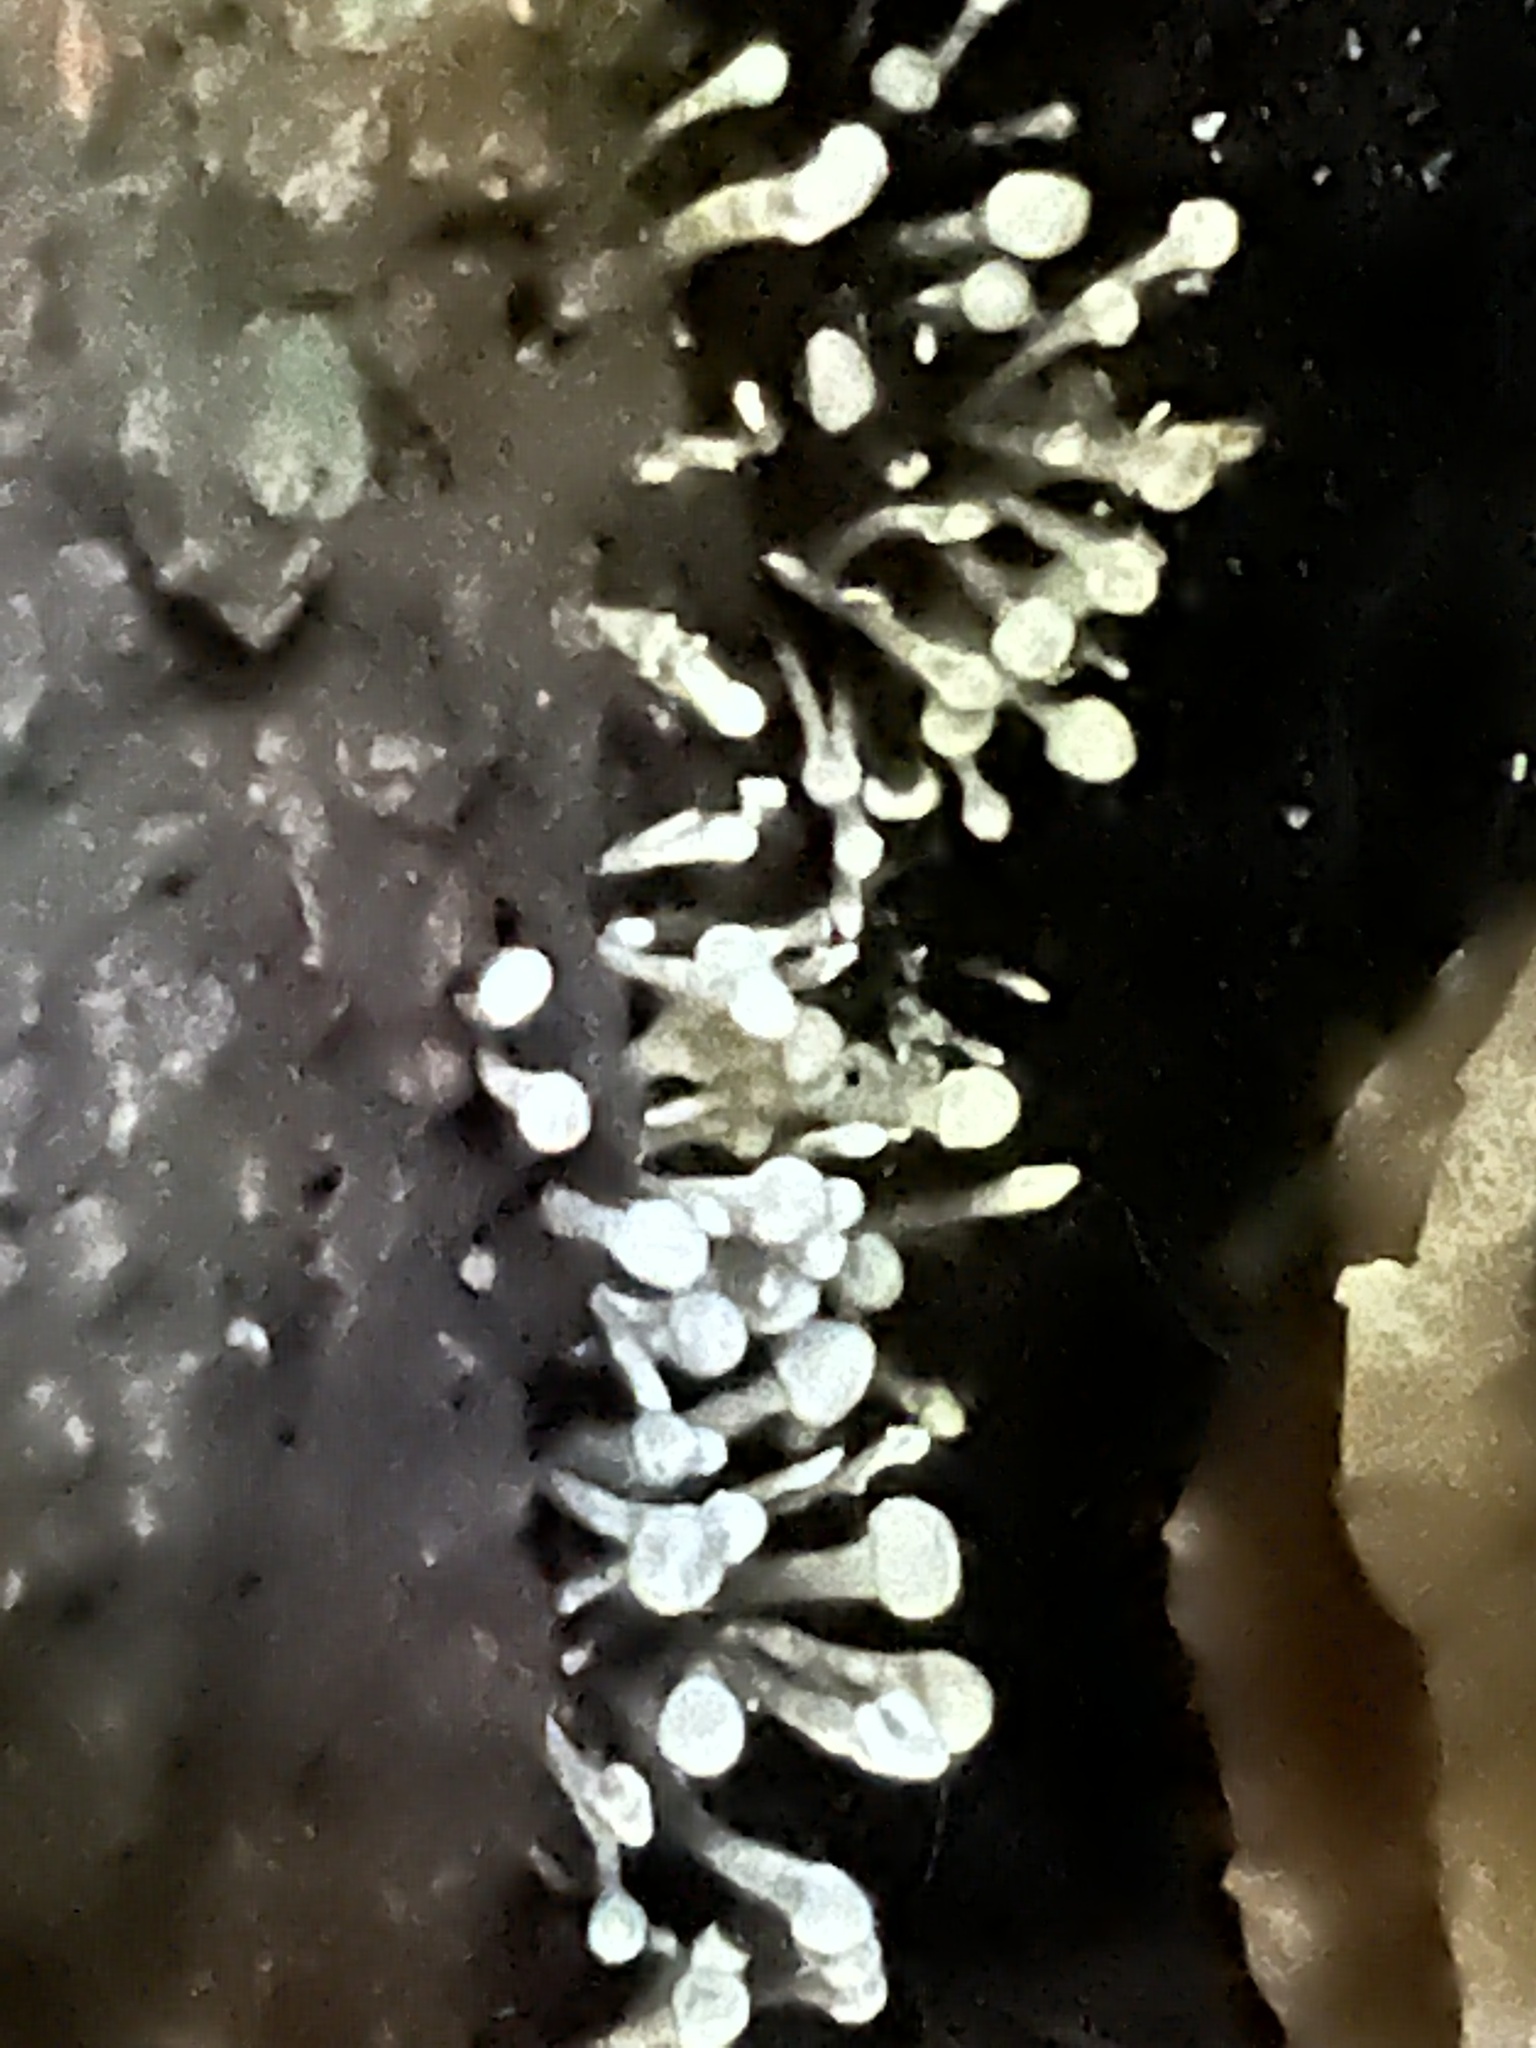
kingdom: Fungi
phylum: Basidiomycota
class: Atractiellomycetes
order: Atractiellales
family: Phleogenaceae
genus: Phleogena
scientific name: Phleogena faginea
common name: Fenugreek stalkball
